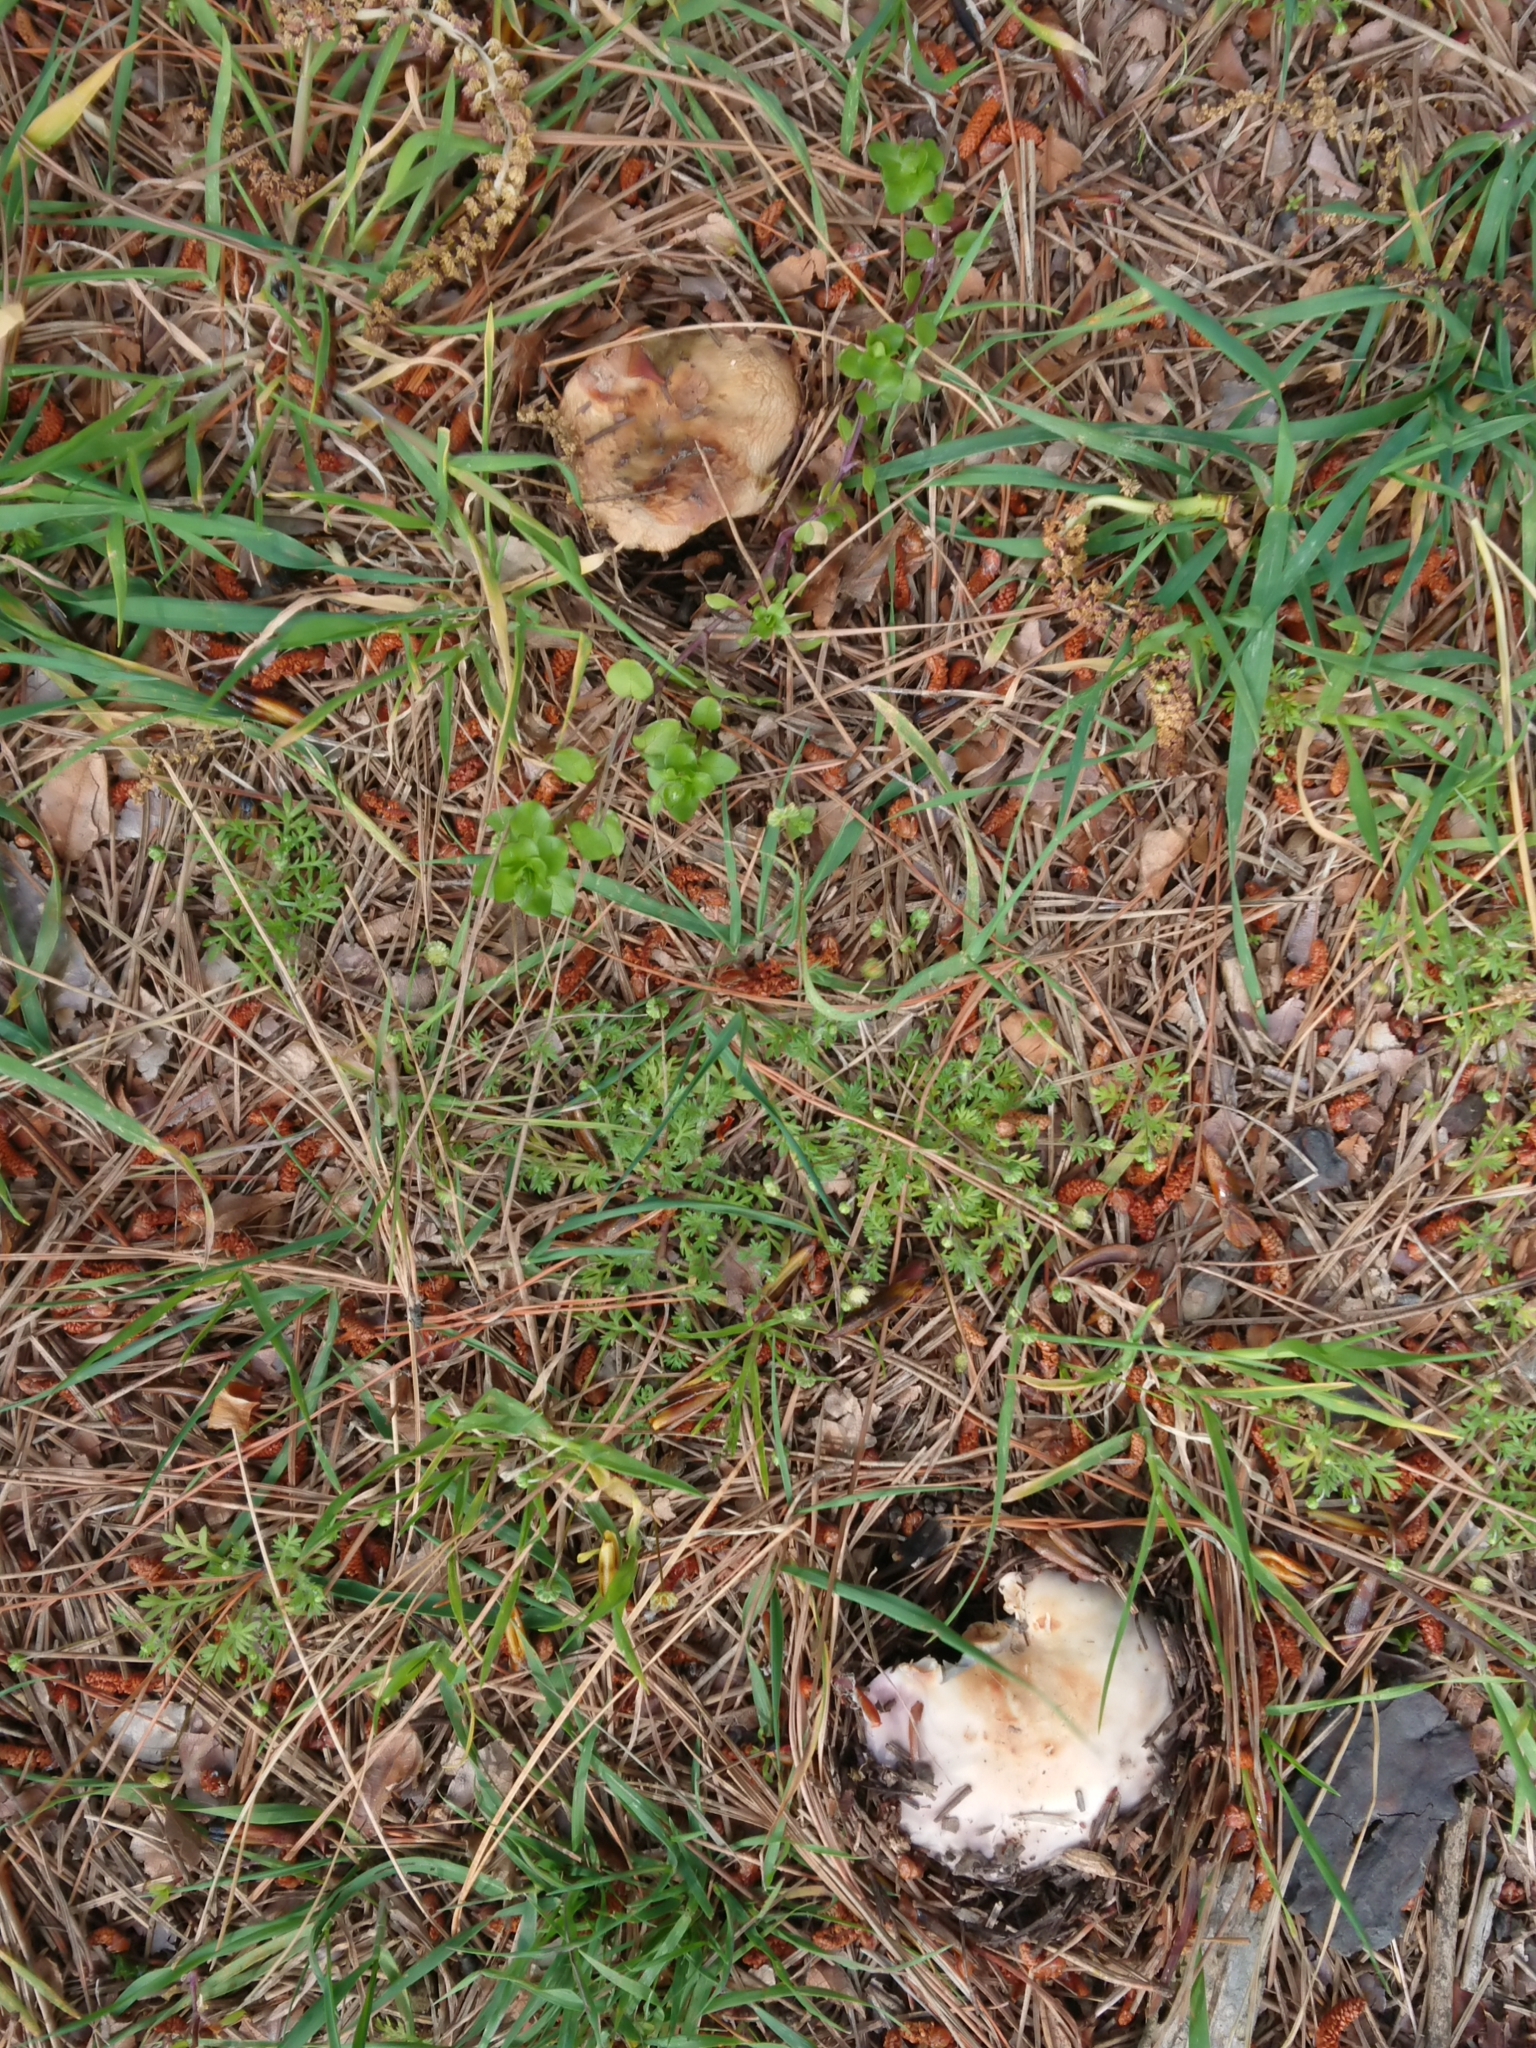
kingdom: Fungi
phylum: Basidiomycota
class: Agaricomycetes
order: Russulales
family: Russulaceae
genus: Russula
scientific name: Russula grisea
